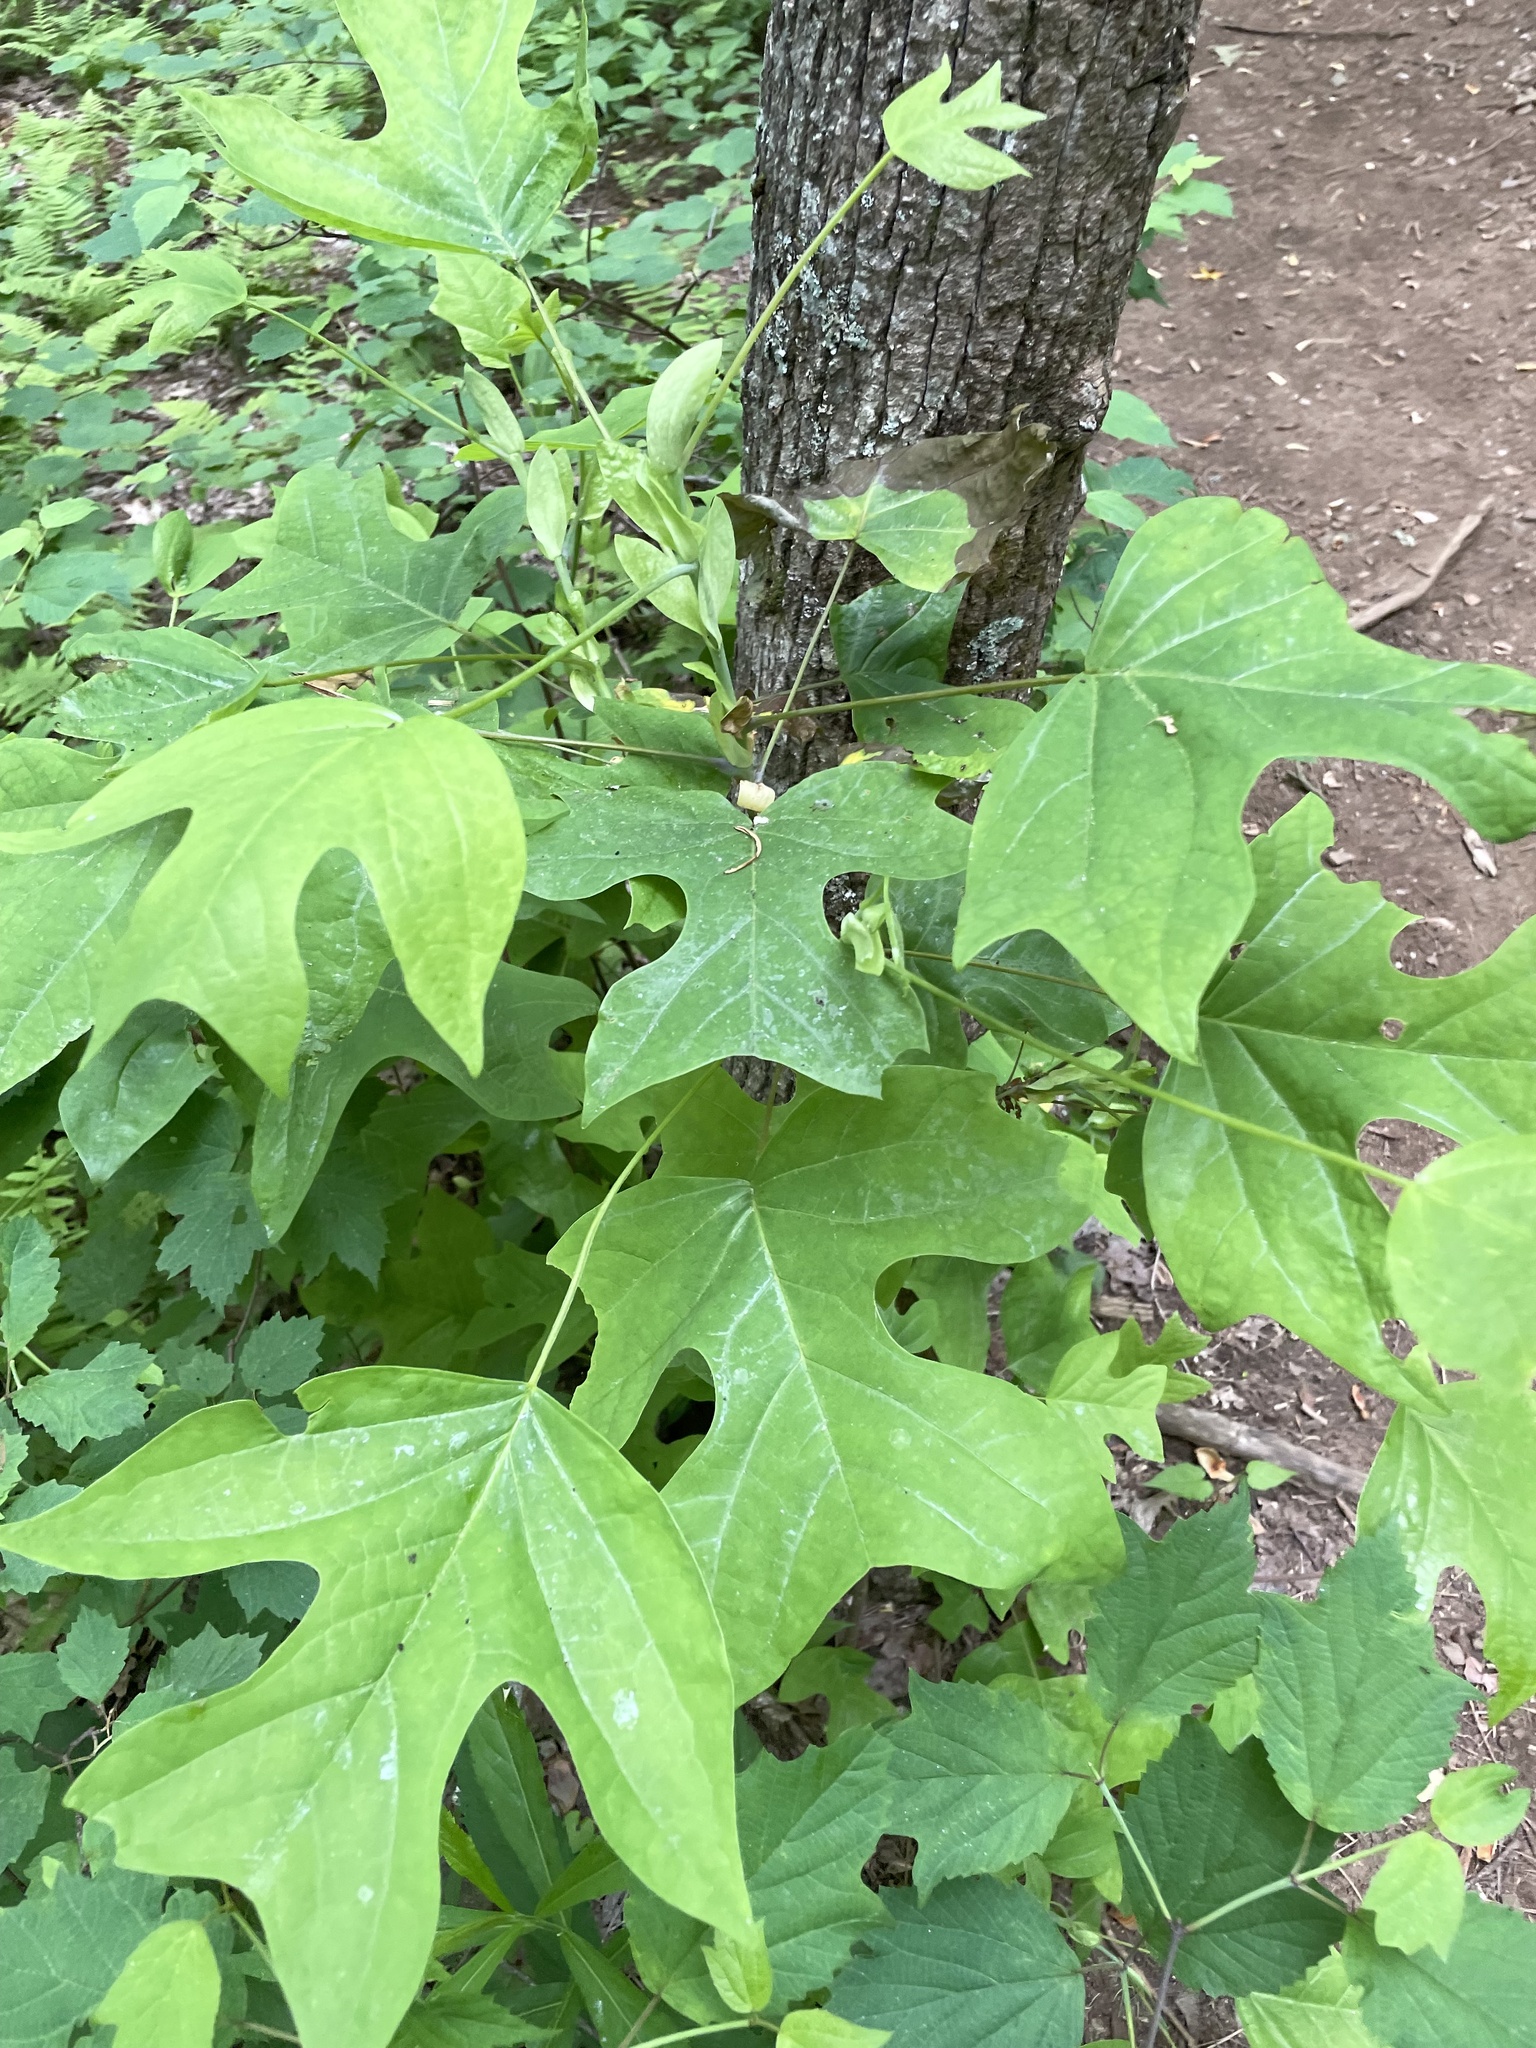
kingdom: Plantae
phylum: Tracheophyta
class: Magnoliopsida
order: Magnoliales
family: Magnoliaceae
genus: Liriodendron
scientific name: Liriodendron tulipifera
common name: Tulip tree
